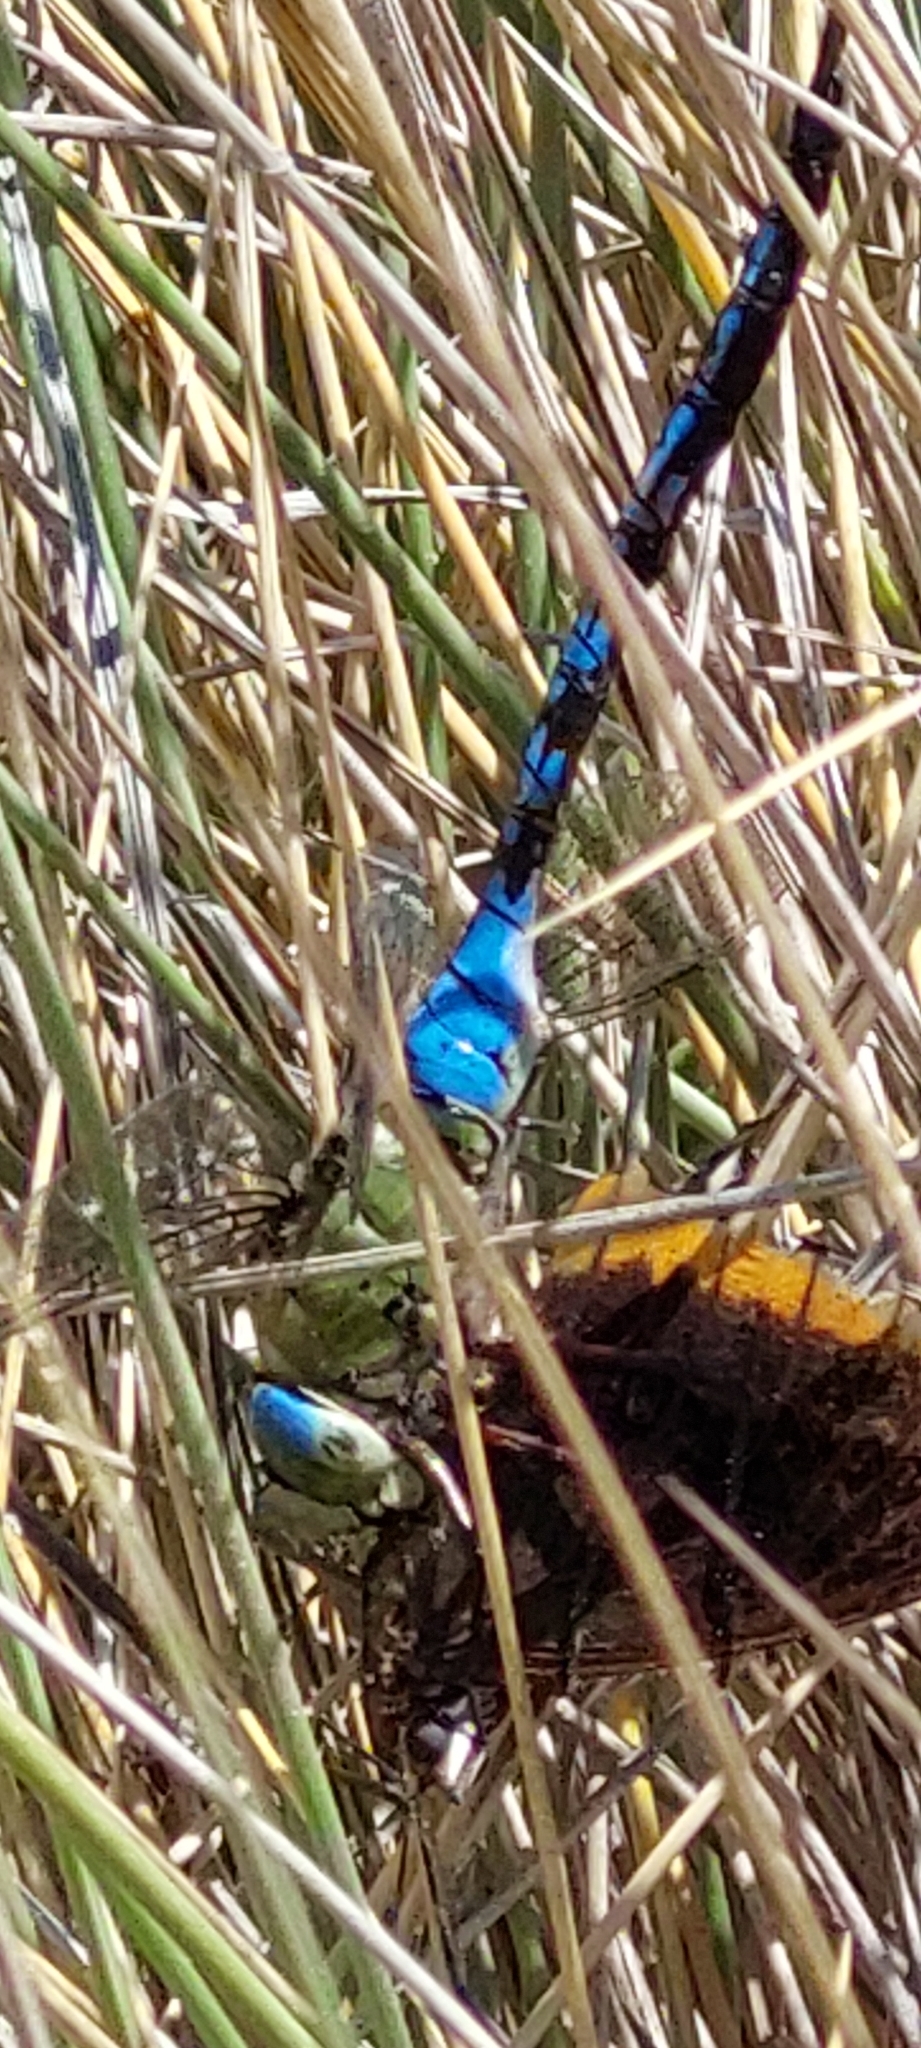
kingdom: Animalia
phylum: Arthropoda
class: Insecta
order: Odonata
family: Aeshnidae
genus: Anax
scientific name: Anax imperator
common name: Emperor dragonfly
